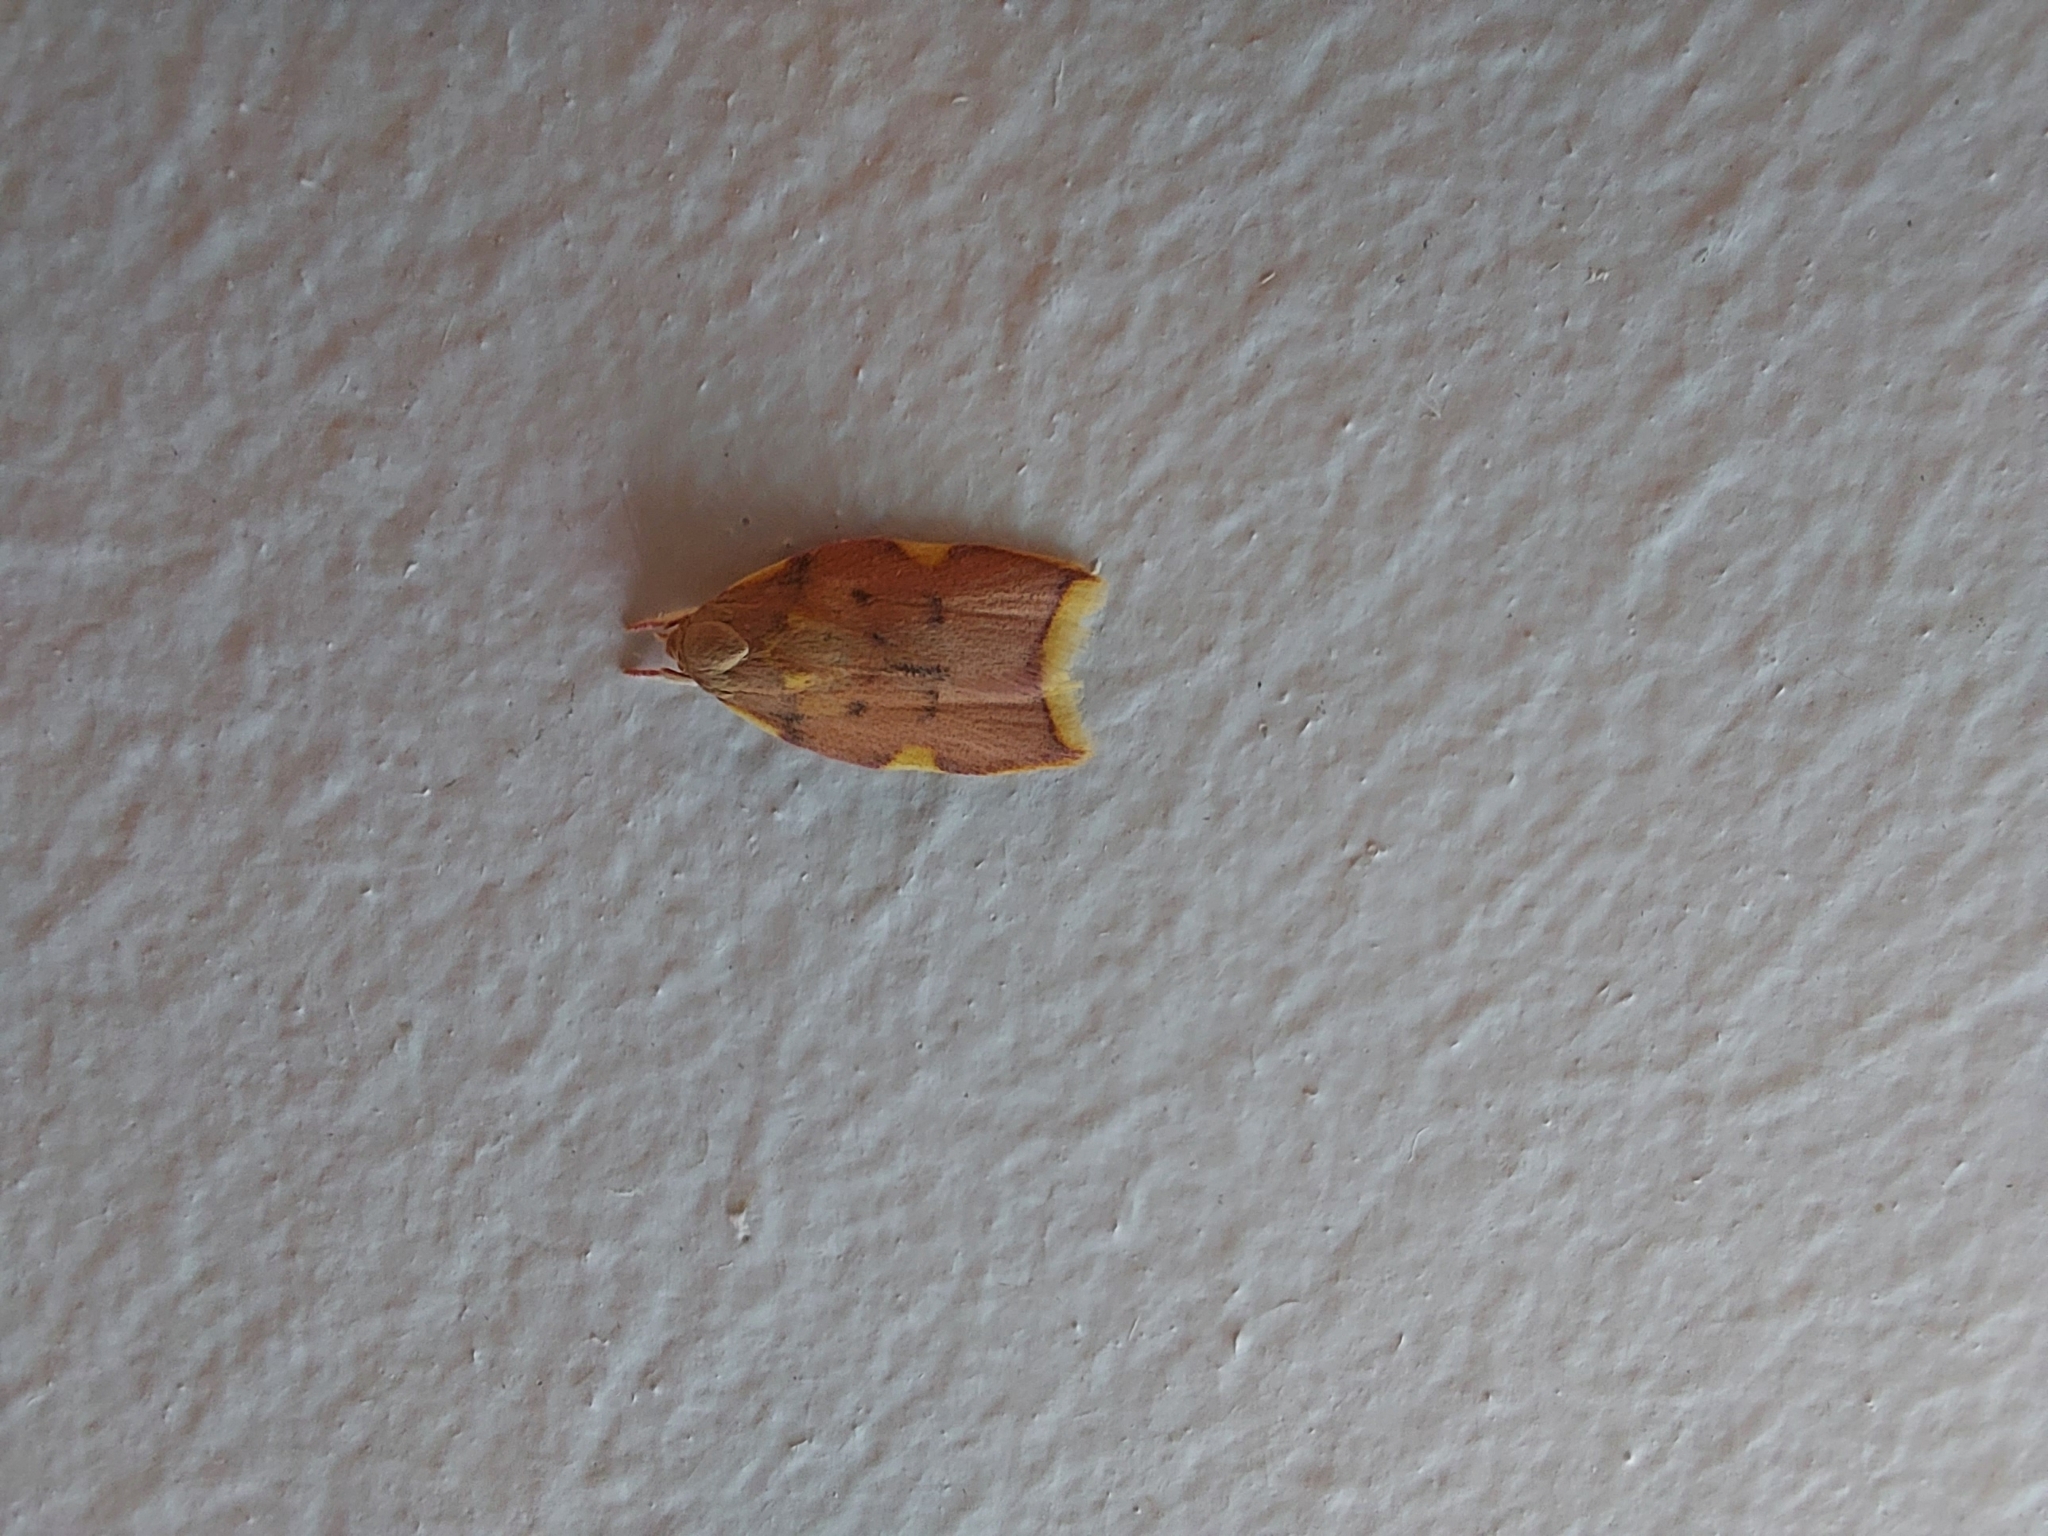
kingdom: Animalia
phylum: Arthropoda
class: Insecta
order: Lepidoptera
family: Peleopodidae
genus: Carcina
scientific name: Carcina quercana
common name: Moth
